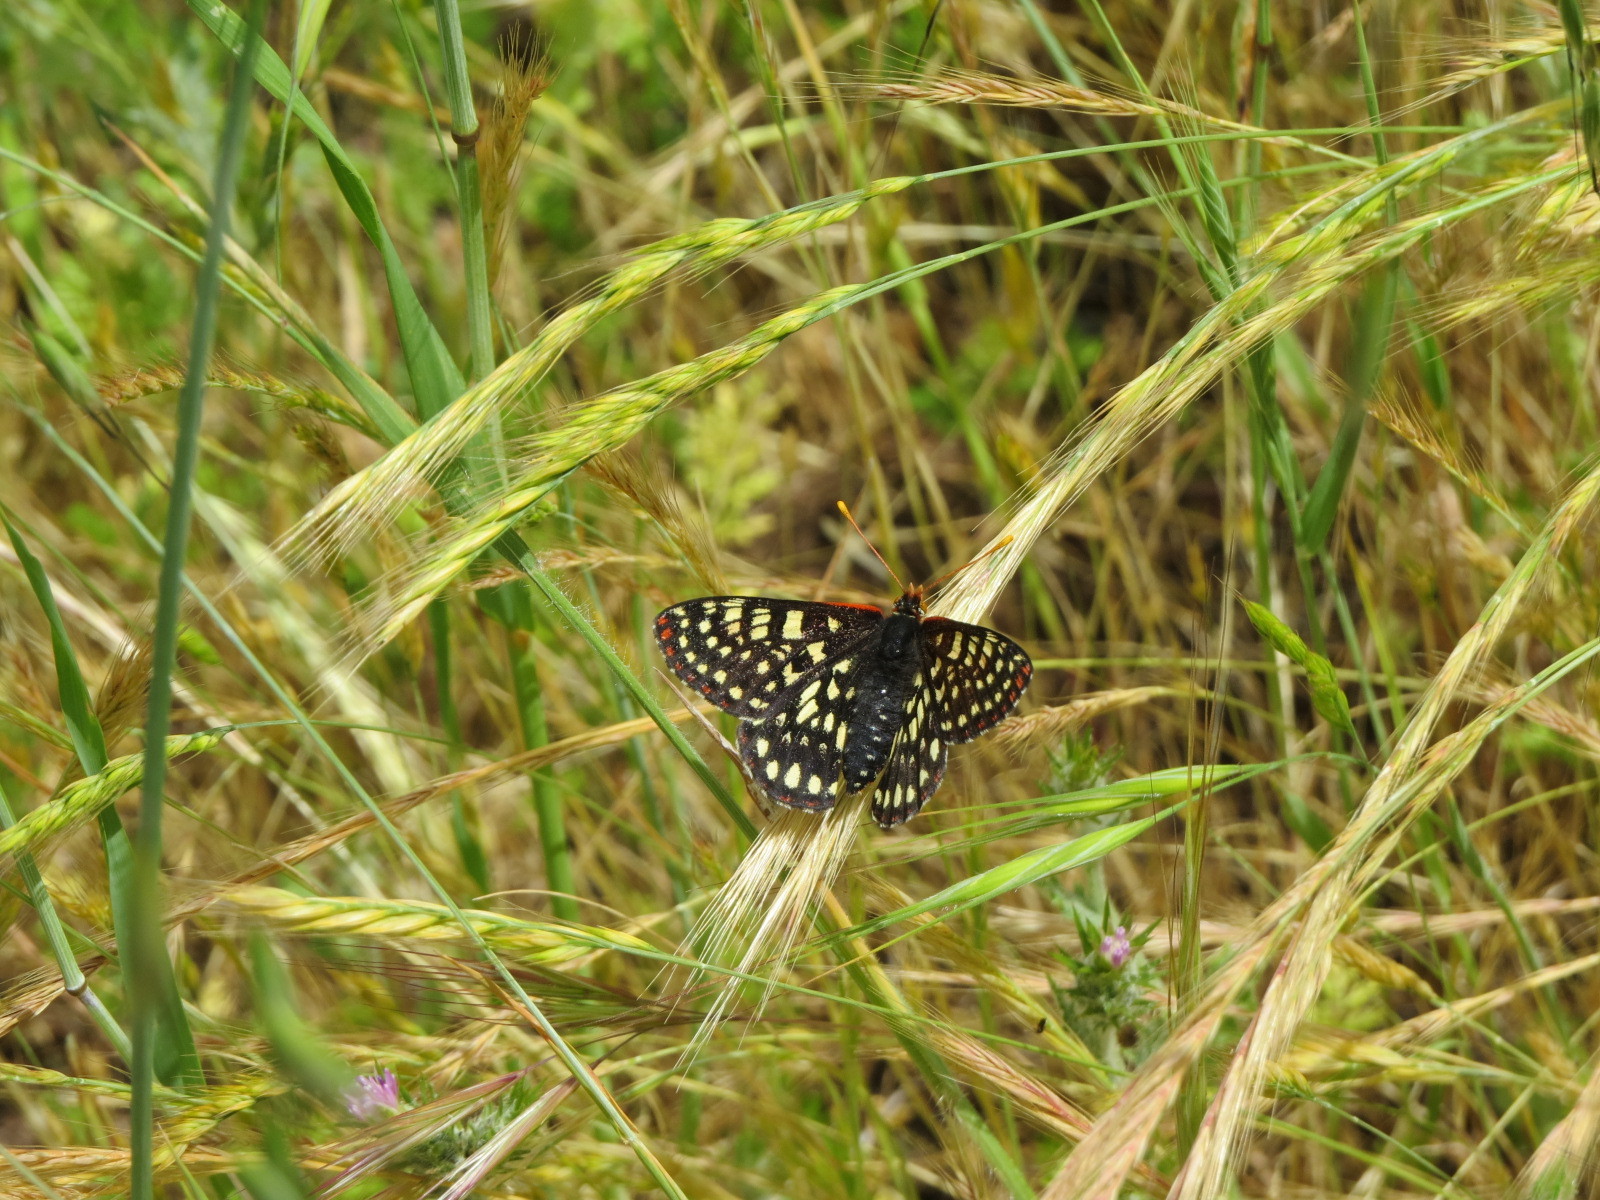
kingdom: Animalia
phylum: Arthropoda
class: Insecta
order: Lepidoptera
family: Nymphalidae
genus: Occidryas
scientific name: Occidryas chalcedona
